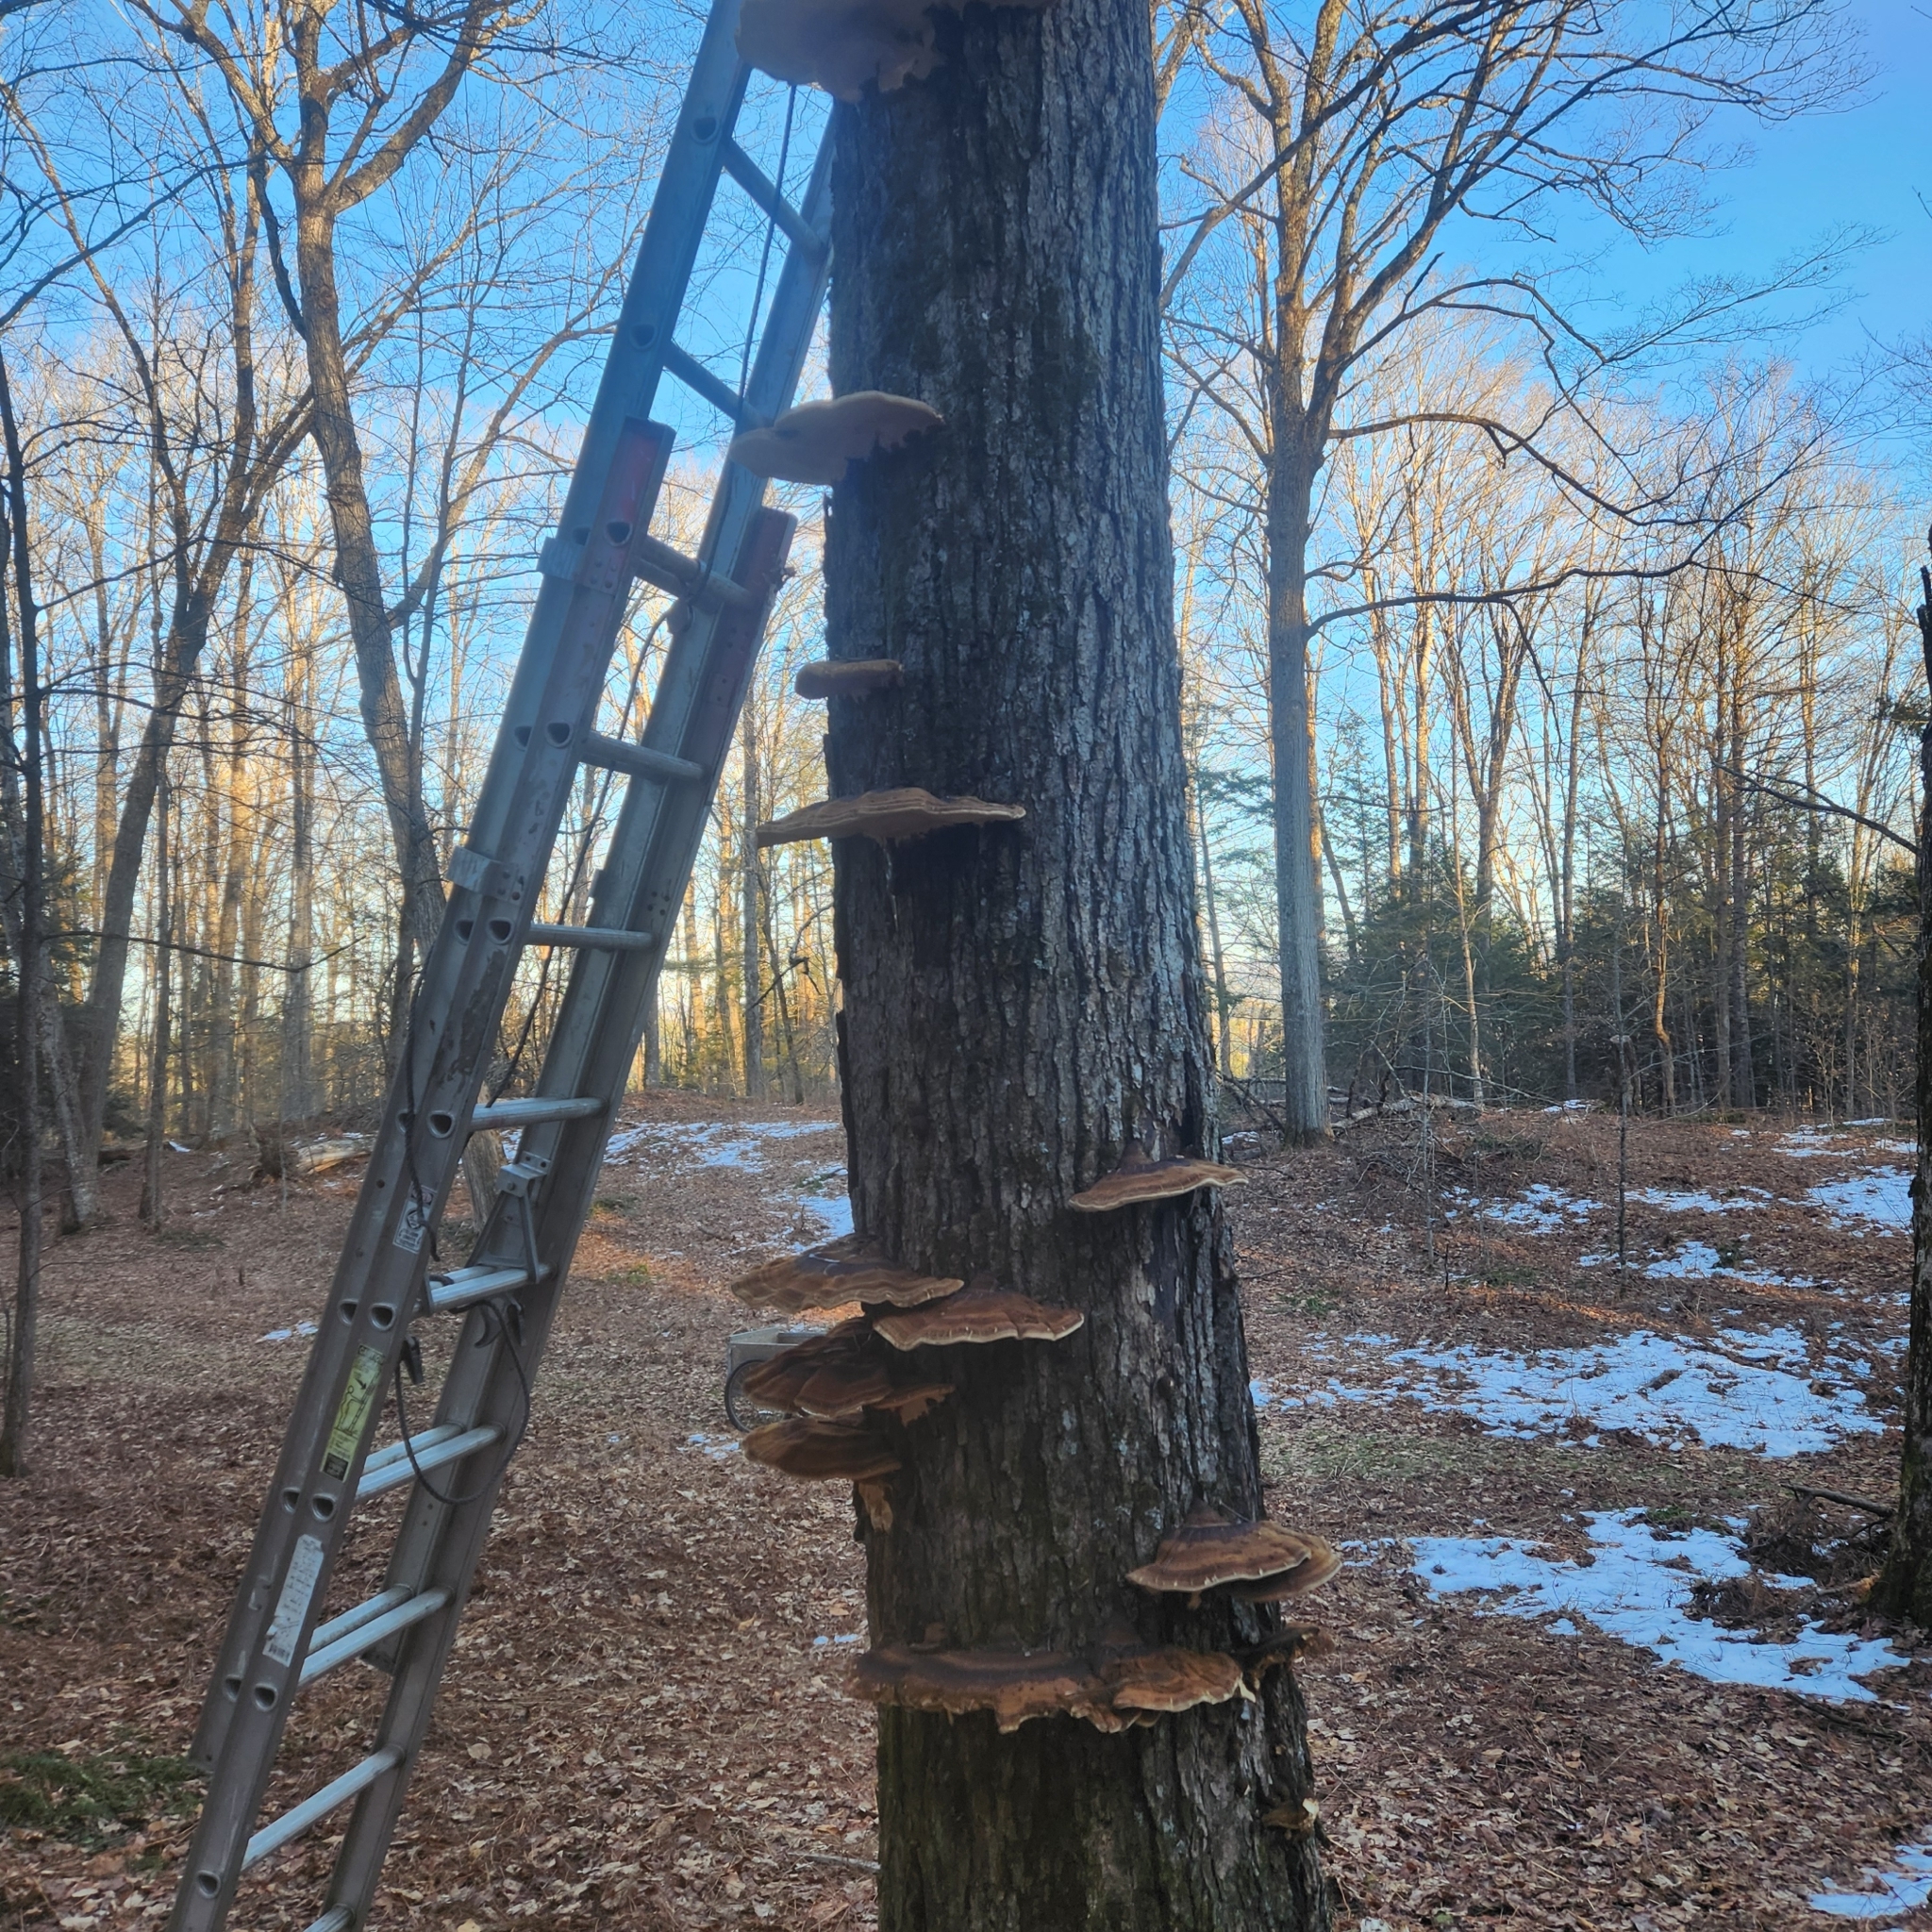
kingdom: Fungi
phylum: Basidiomycota
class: Agaricomycetes
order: Polyporales
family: Ischnodermataceae
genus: Ischnoderma
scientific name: Ischnoderma resinosum
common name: Resinous polypore
